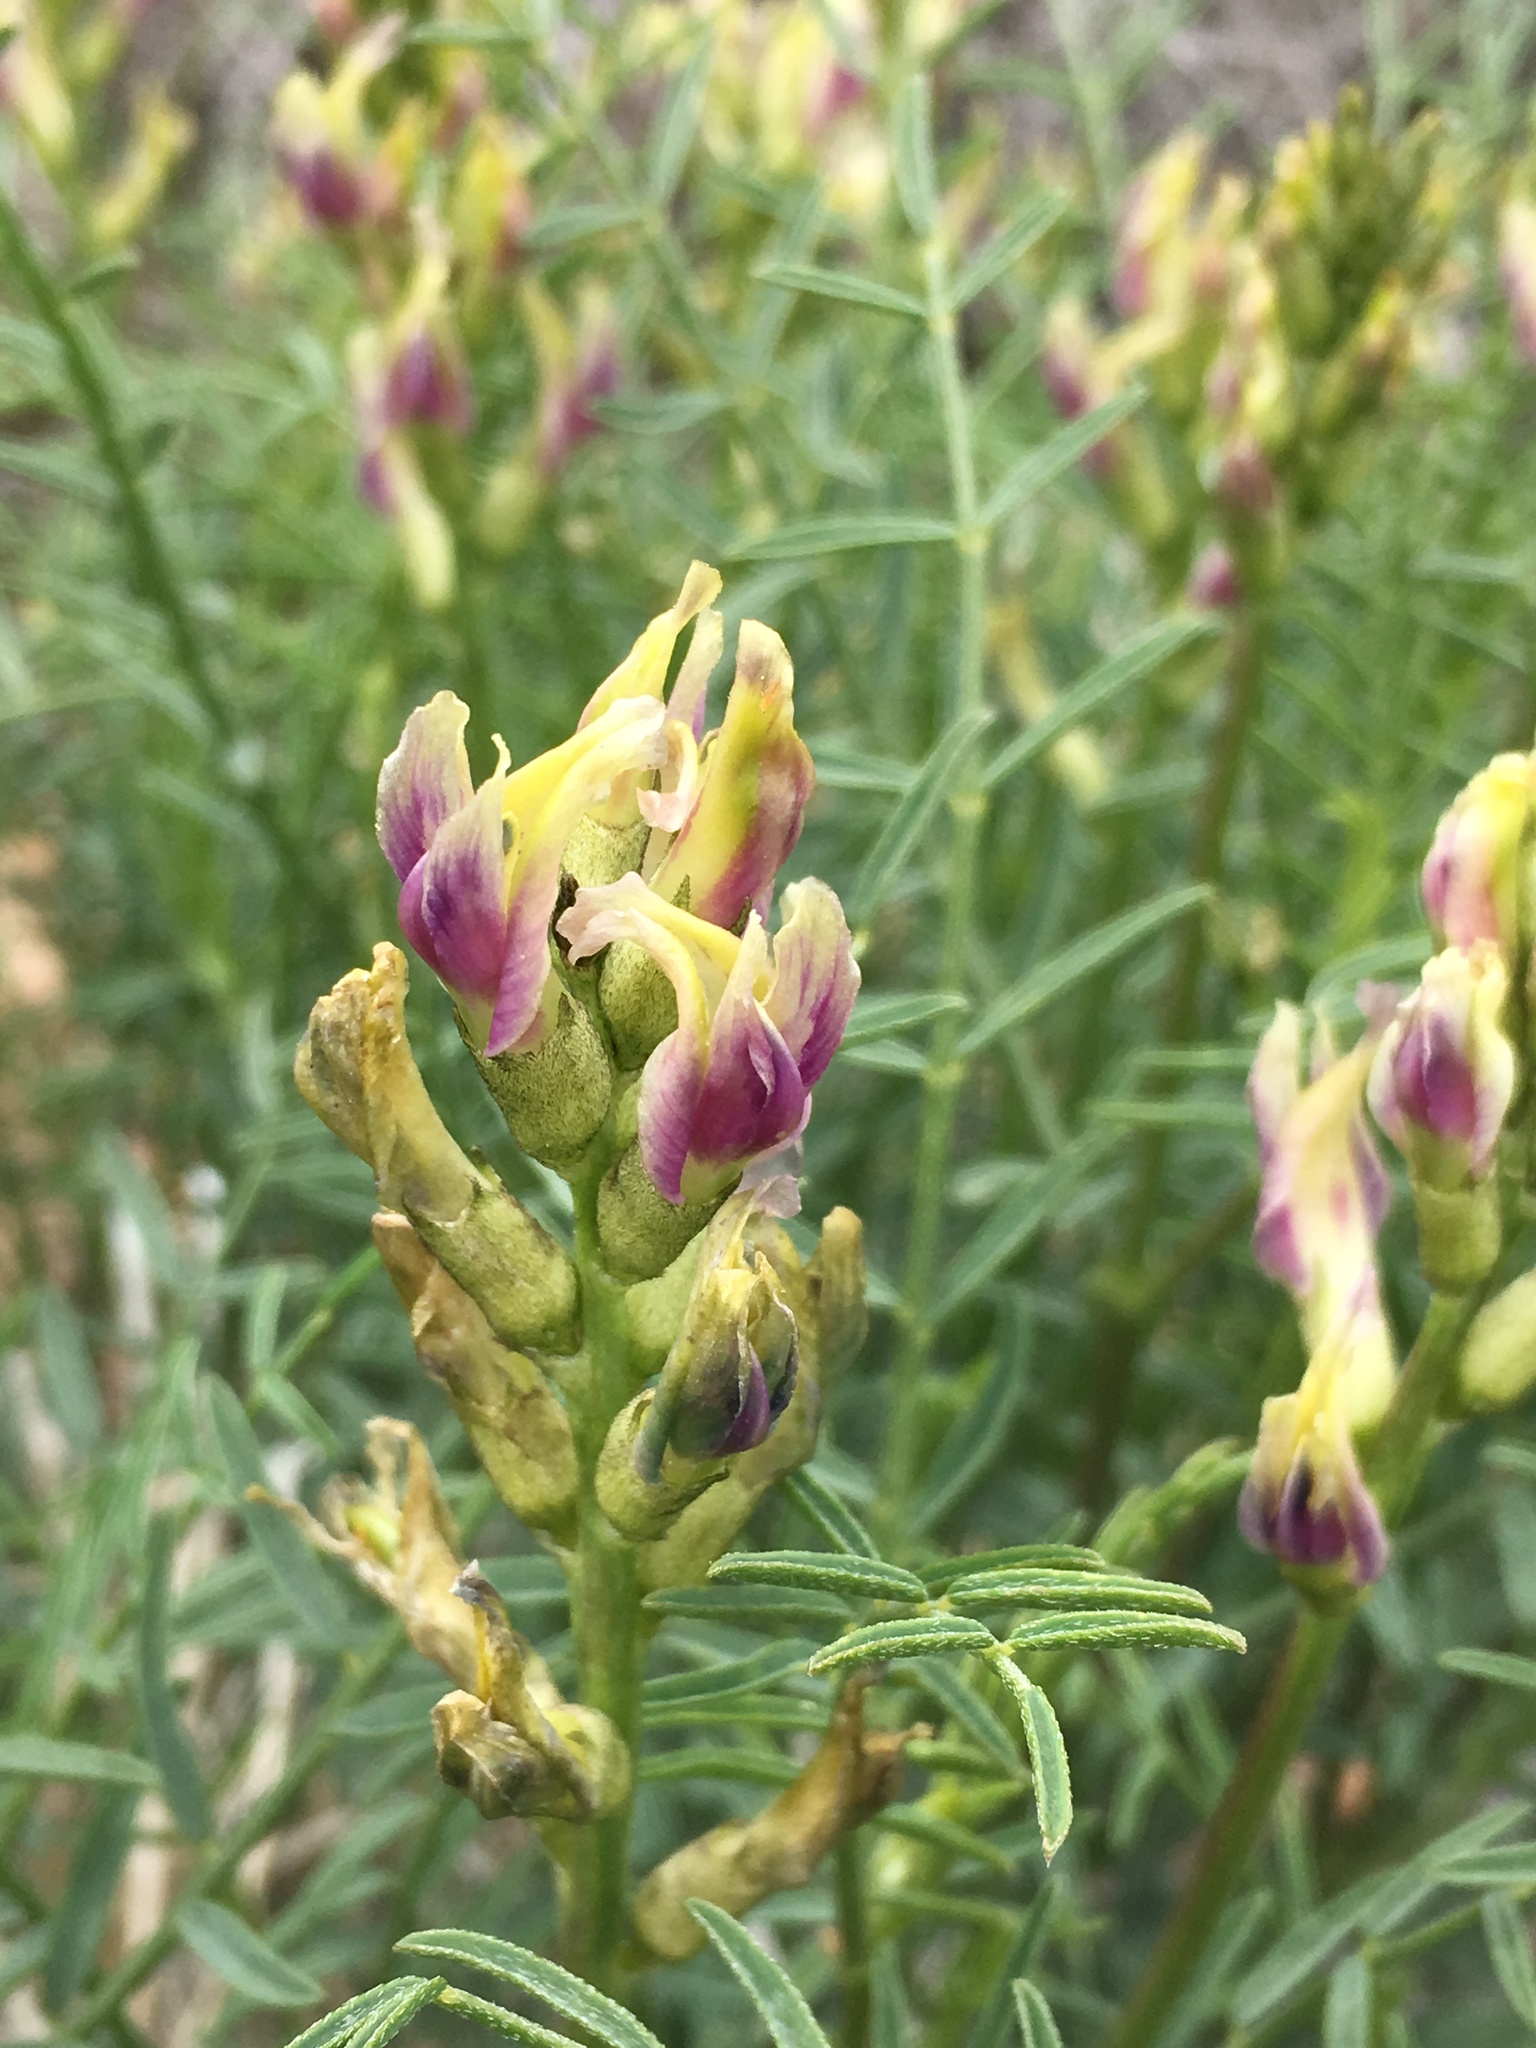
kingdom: Plantae
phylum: Tracheophyta
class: Magnoliopsida
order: Fabales
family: Fabaceae
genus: Astragalus
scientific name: Astragalus bicristatus
